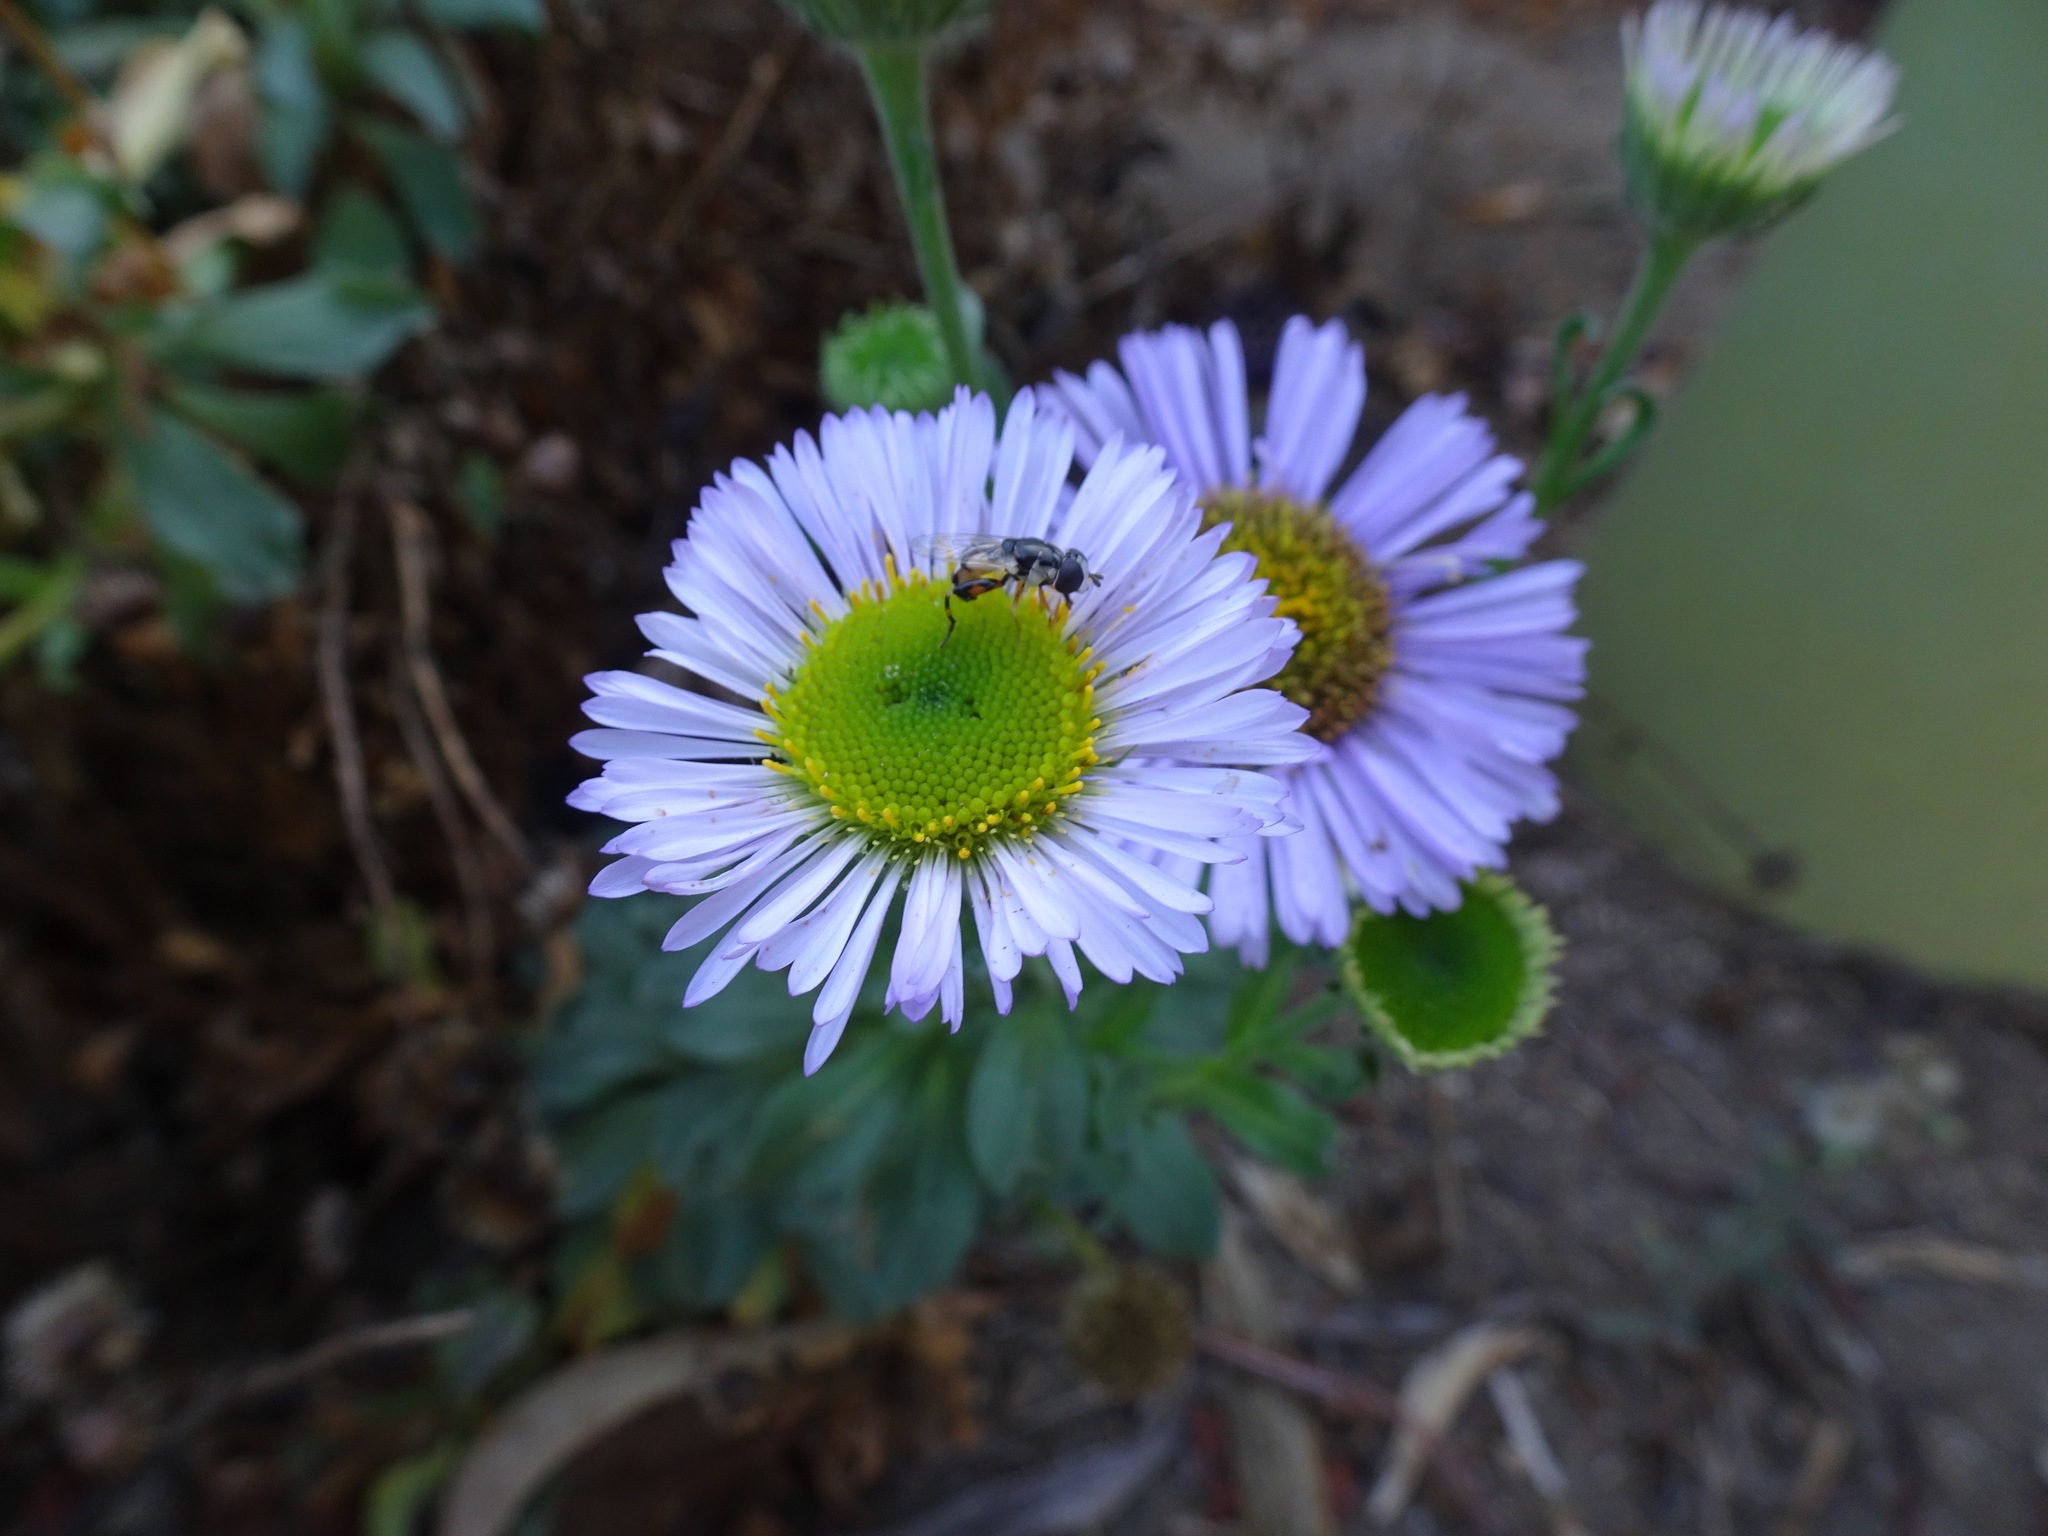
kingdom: Animalia
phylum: Arthropoda
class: Insecta
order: Diptera
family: Syrphidae
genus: Syritta
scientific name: Syritta flaviventris
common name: Syrphid fly
